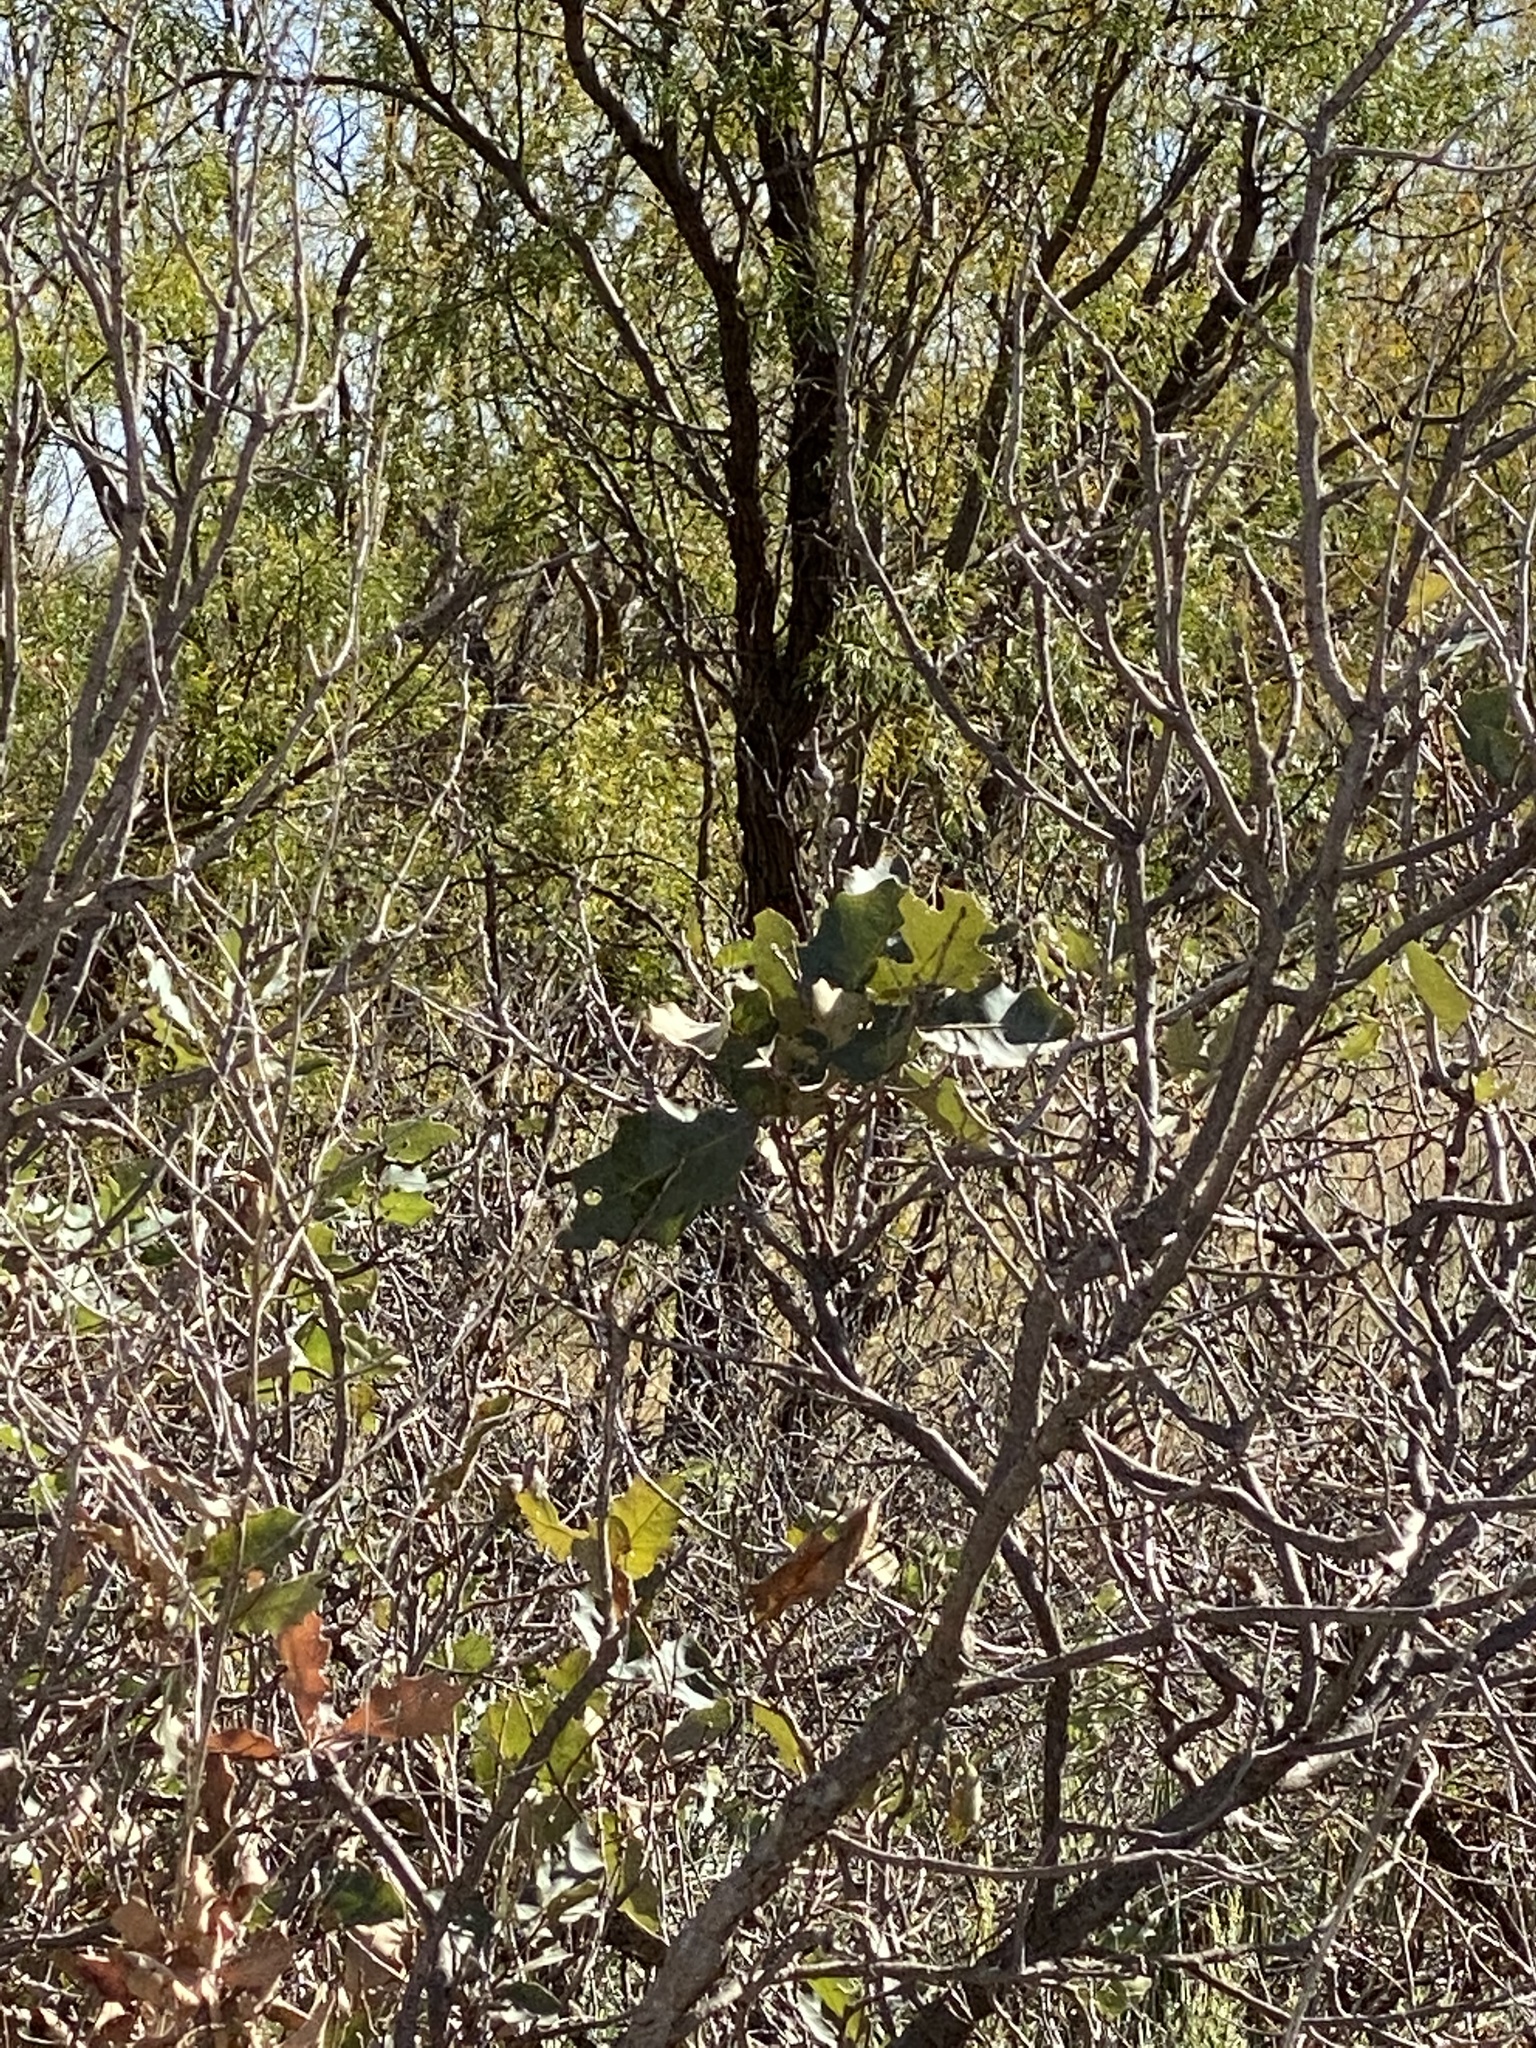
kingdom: Plantae
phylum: Tracheophyta
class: Magnoliopsida
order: Fagales
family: Fagaceae
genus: Quercus
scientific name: Quercus havardii
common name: Shinnery oak
